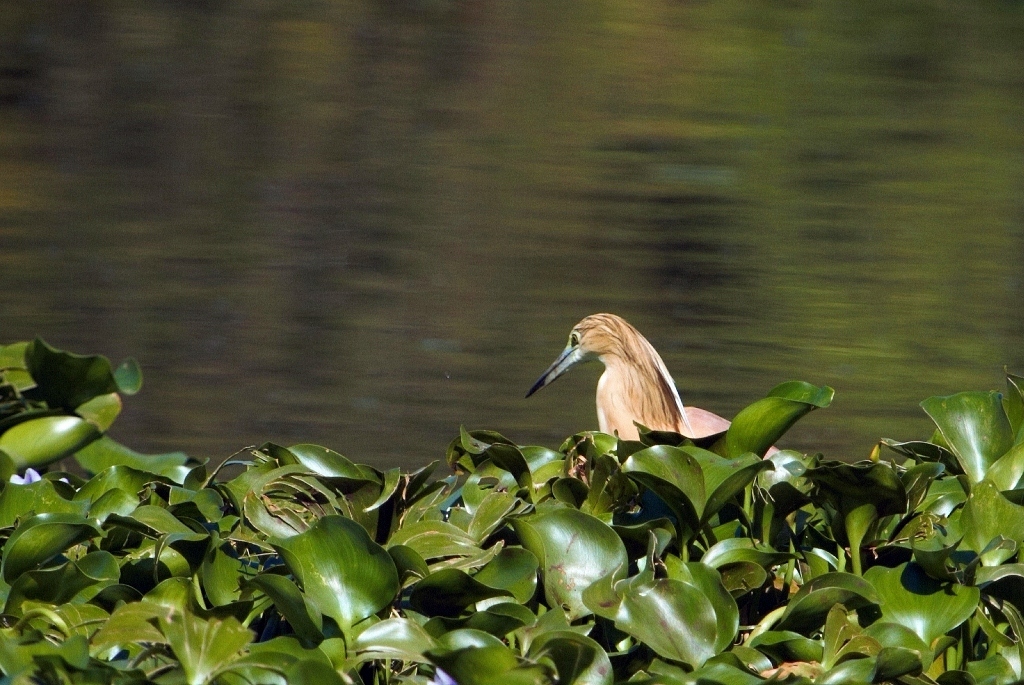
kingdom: Animalia
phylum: Chordata
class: Aves
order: Pelecaniformes
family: Ardeidae
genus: Ardeola
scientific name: Ardeola ralloides
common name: Squacco heron
